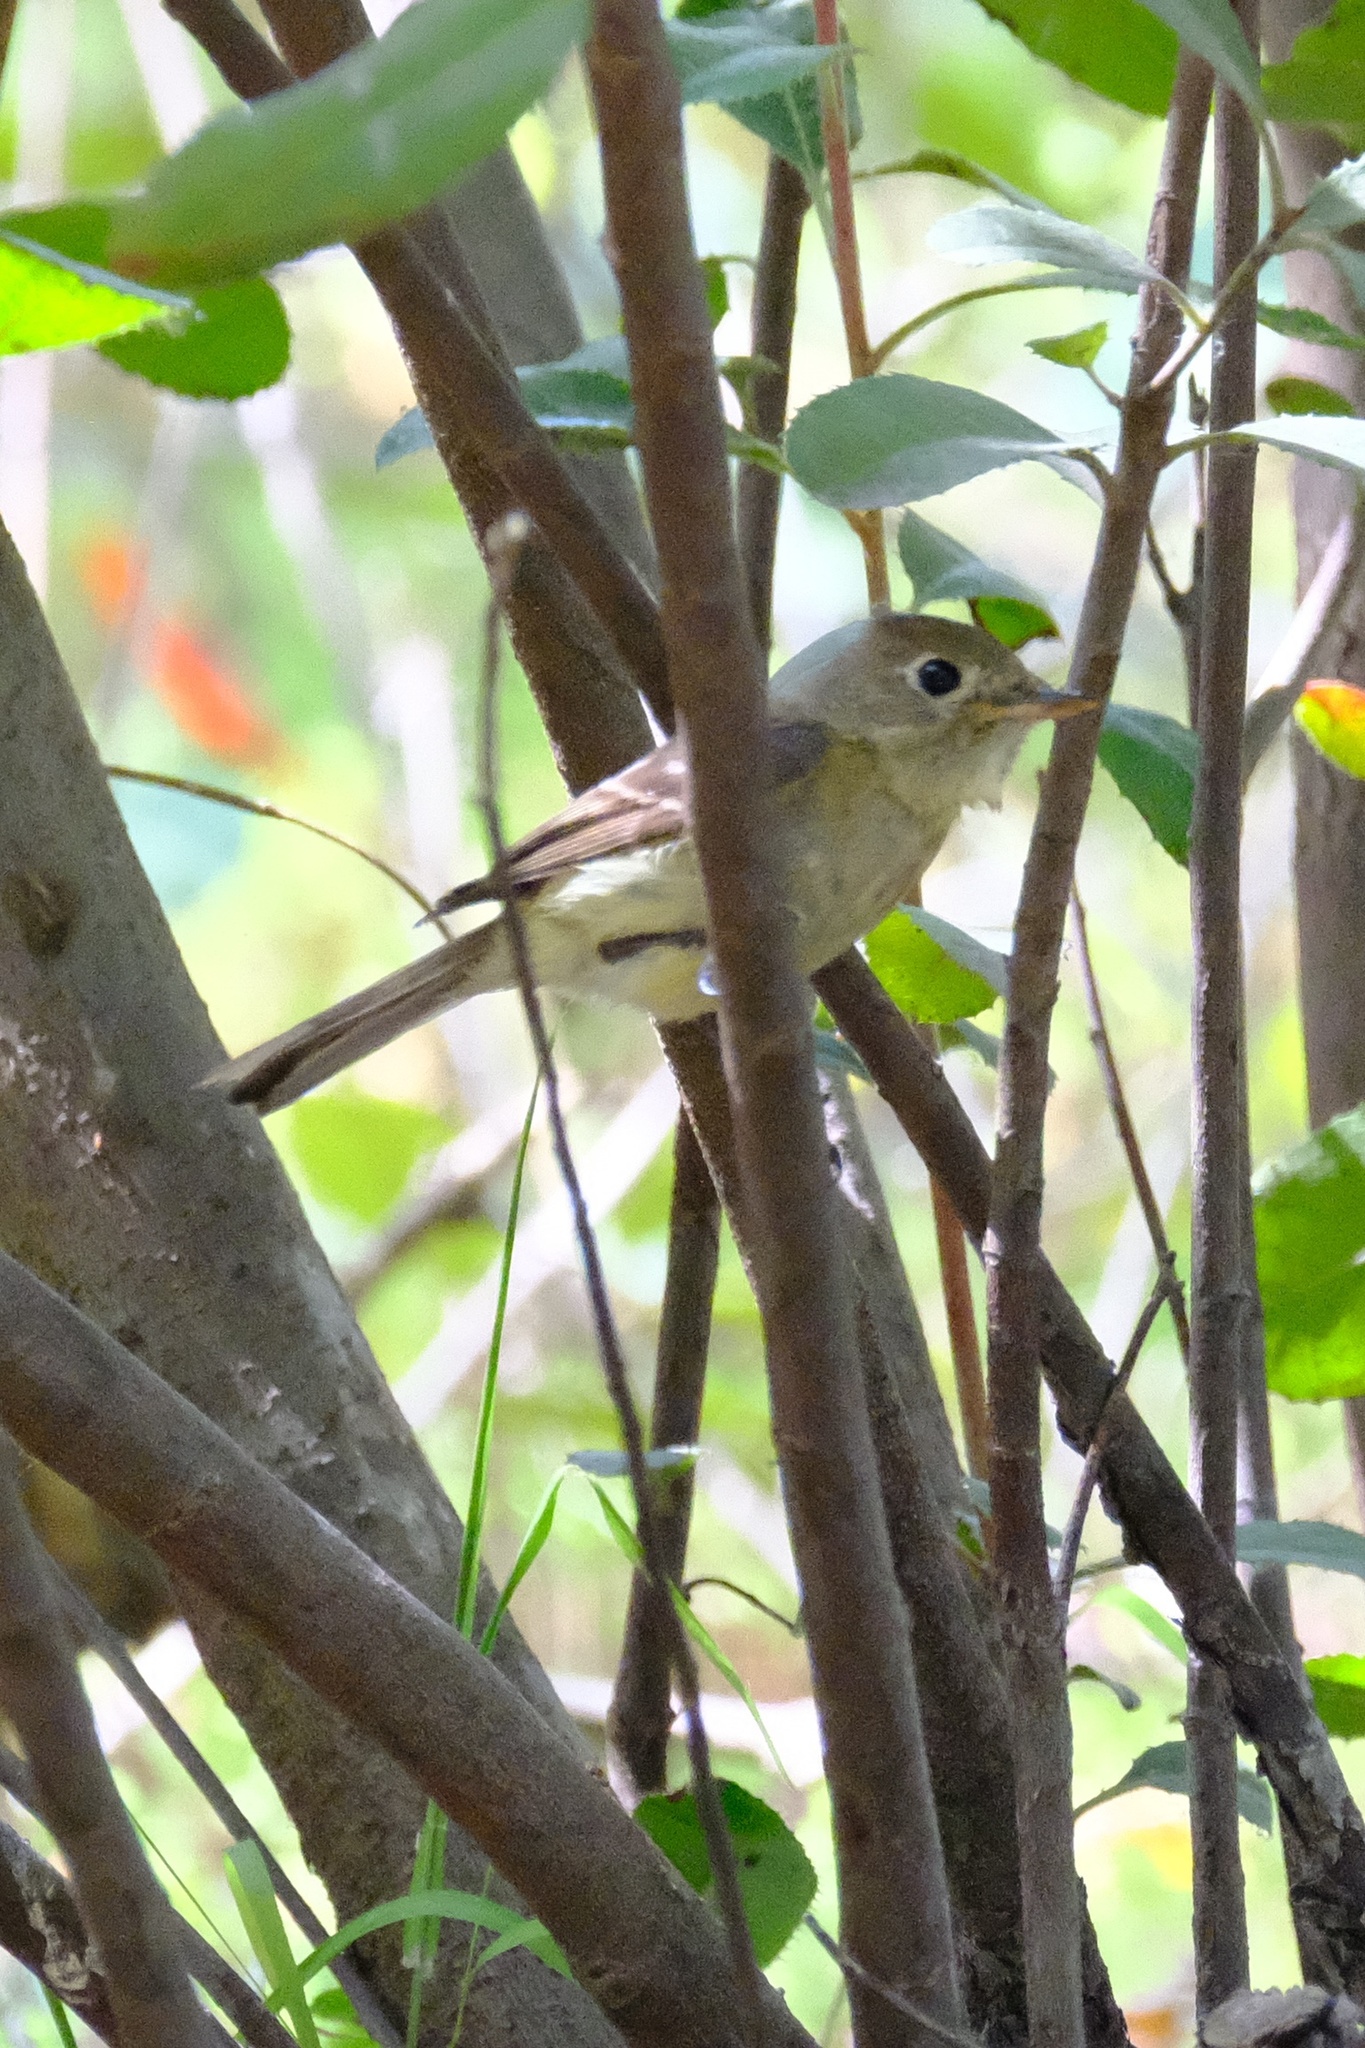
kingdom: Animalia
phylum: Chordata
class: Aves
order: Passeriformes
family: Tyrannidae
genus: Empidonax
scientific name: Empidonax difficilis
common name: Pacific-slope flycatcher
